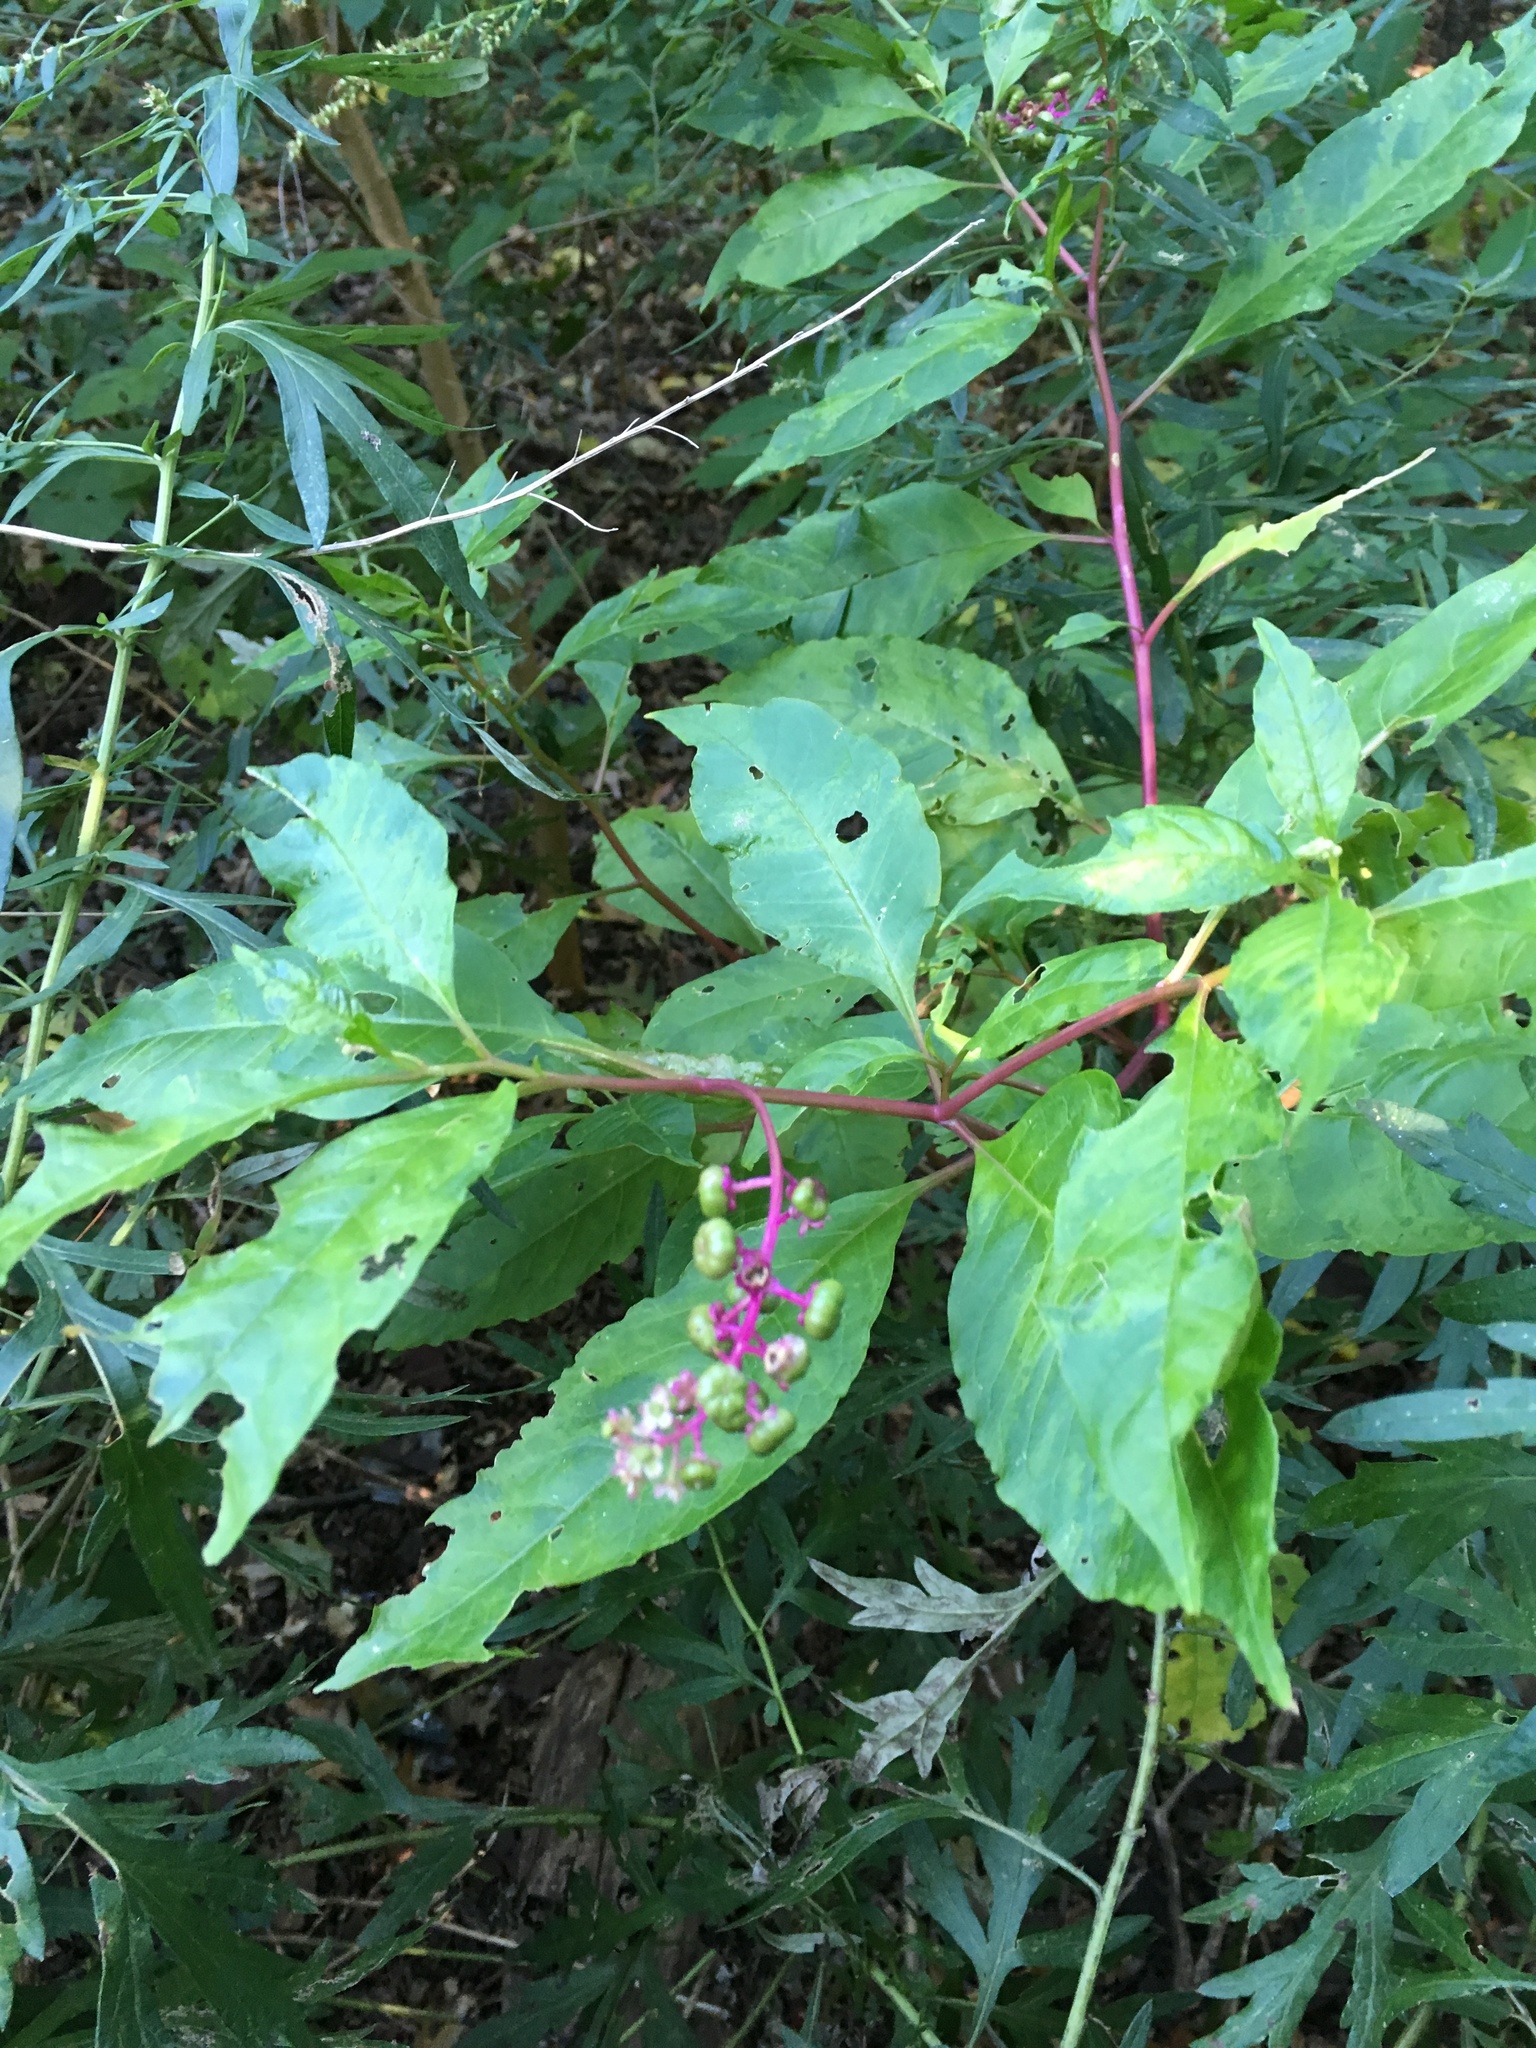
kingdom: Plantae
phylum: Tracheophyta
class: Magnoliopsida
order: Caryophyllales
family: Phytolaccaceae
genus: Phytolacca
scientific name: Phytolacca americana
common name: American pokeweed
